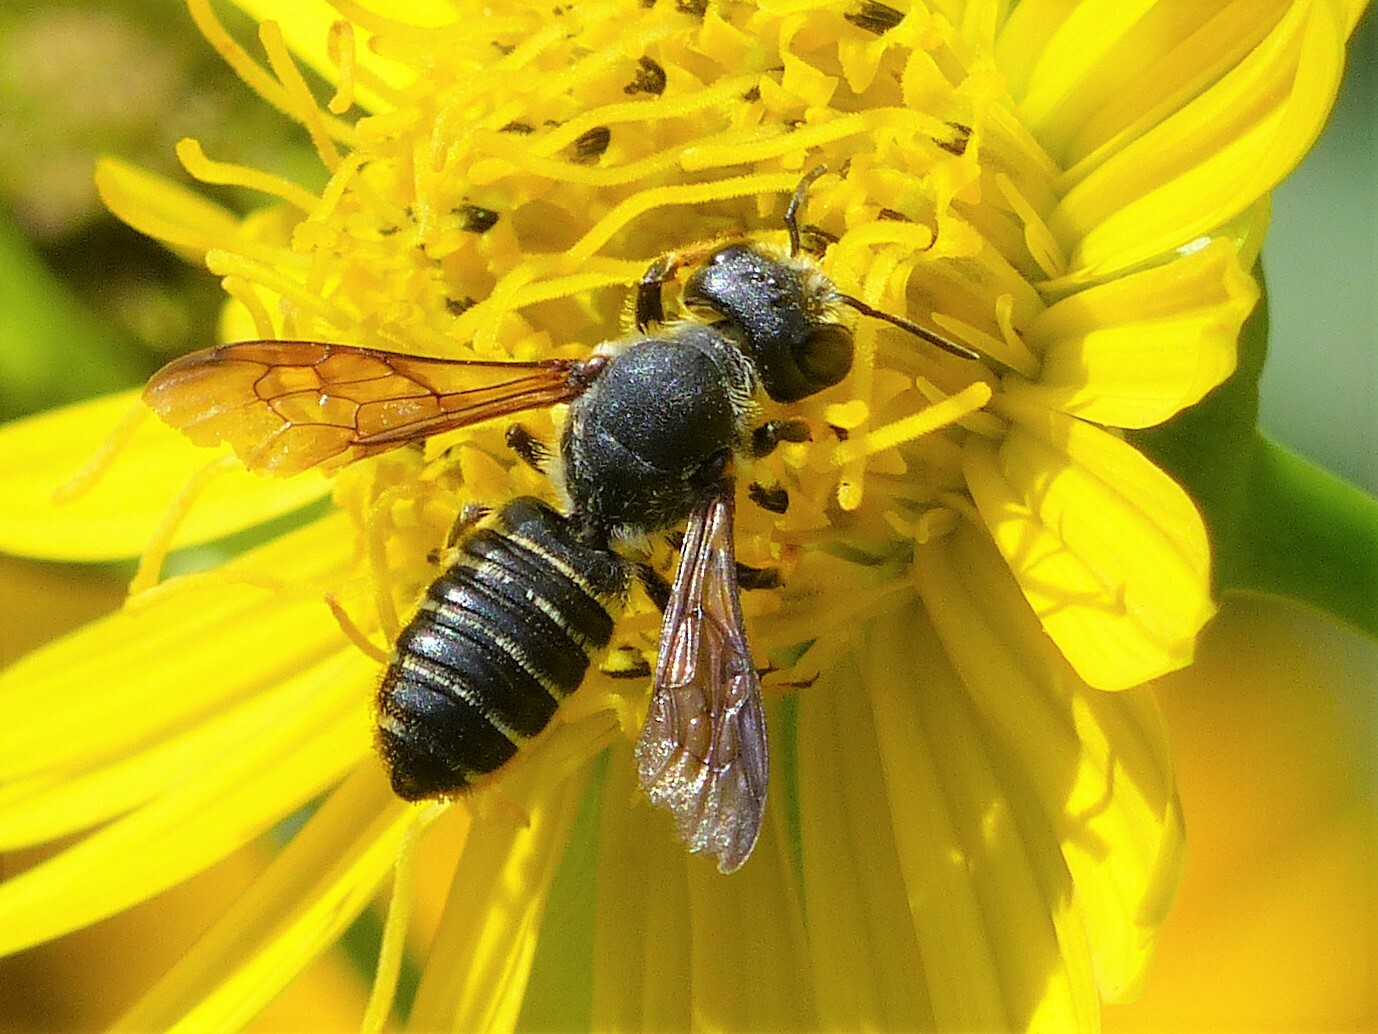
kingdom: Animalia
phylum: Arthropoda
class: Insecta
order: Hymenoptera
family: Megachilidae
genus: Megachile
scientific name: Megachile inimica
